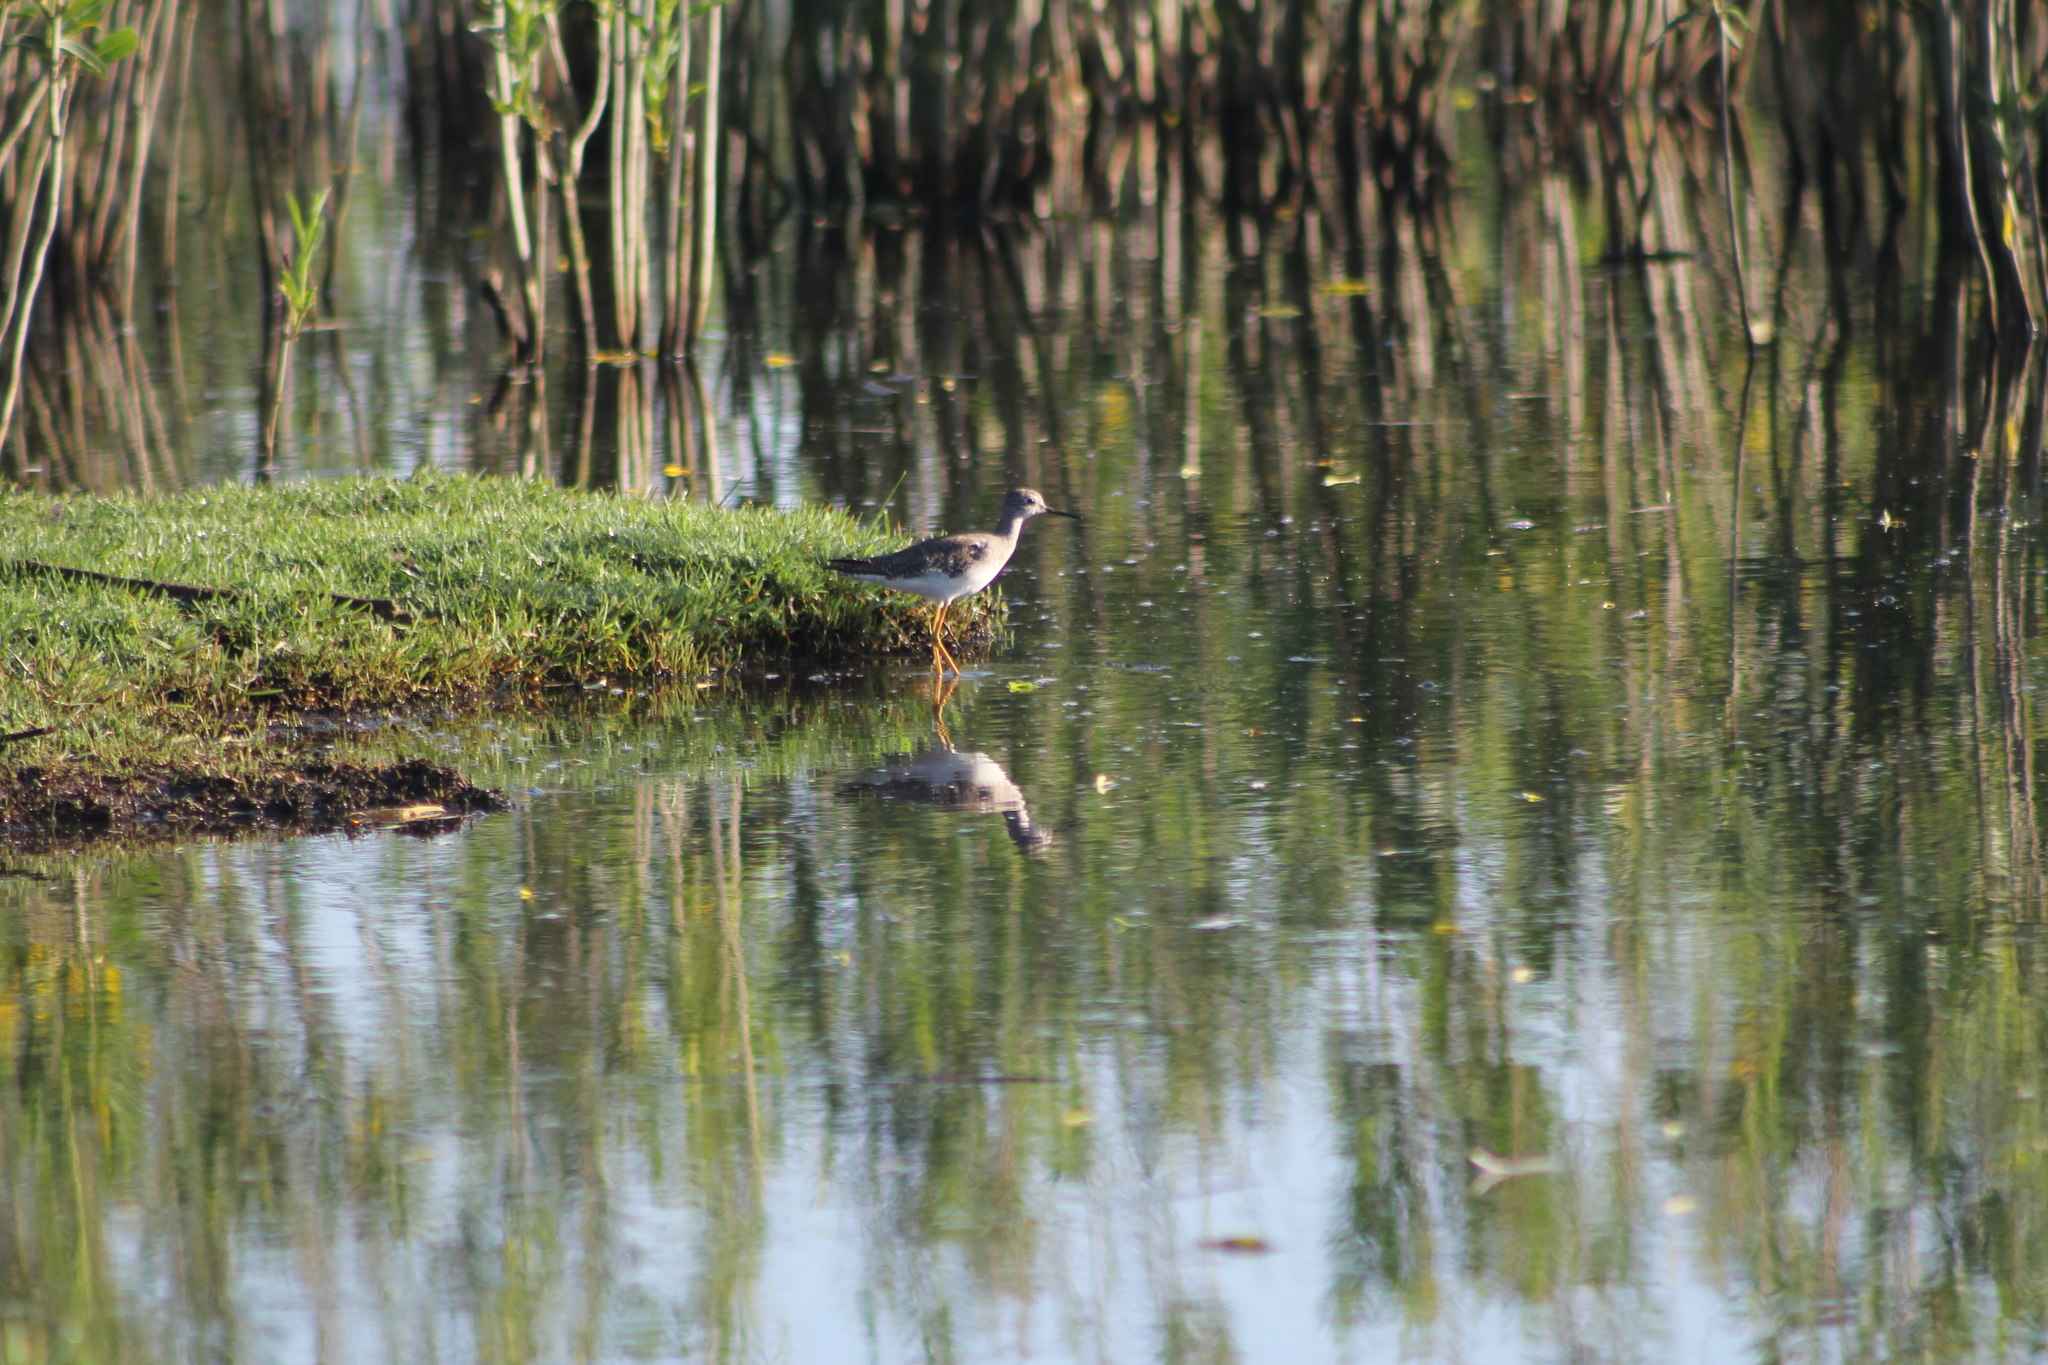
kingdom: Animalia
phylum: Chordata
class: Aves
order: Charadriiformes
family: Scolopacidae
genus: Tringa
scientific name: Tringa flavipes
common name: Lesser yellowlegs
